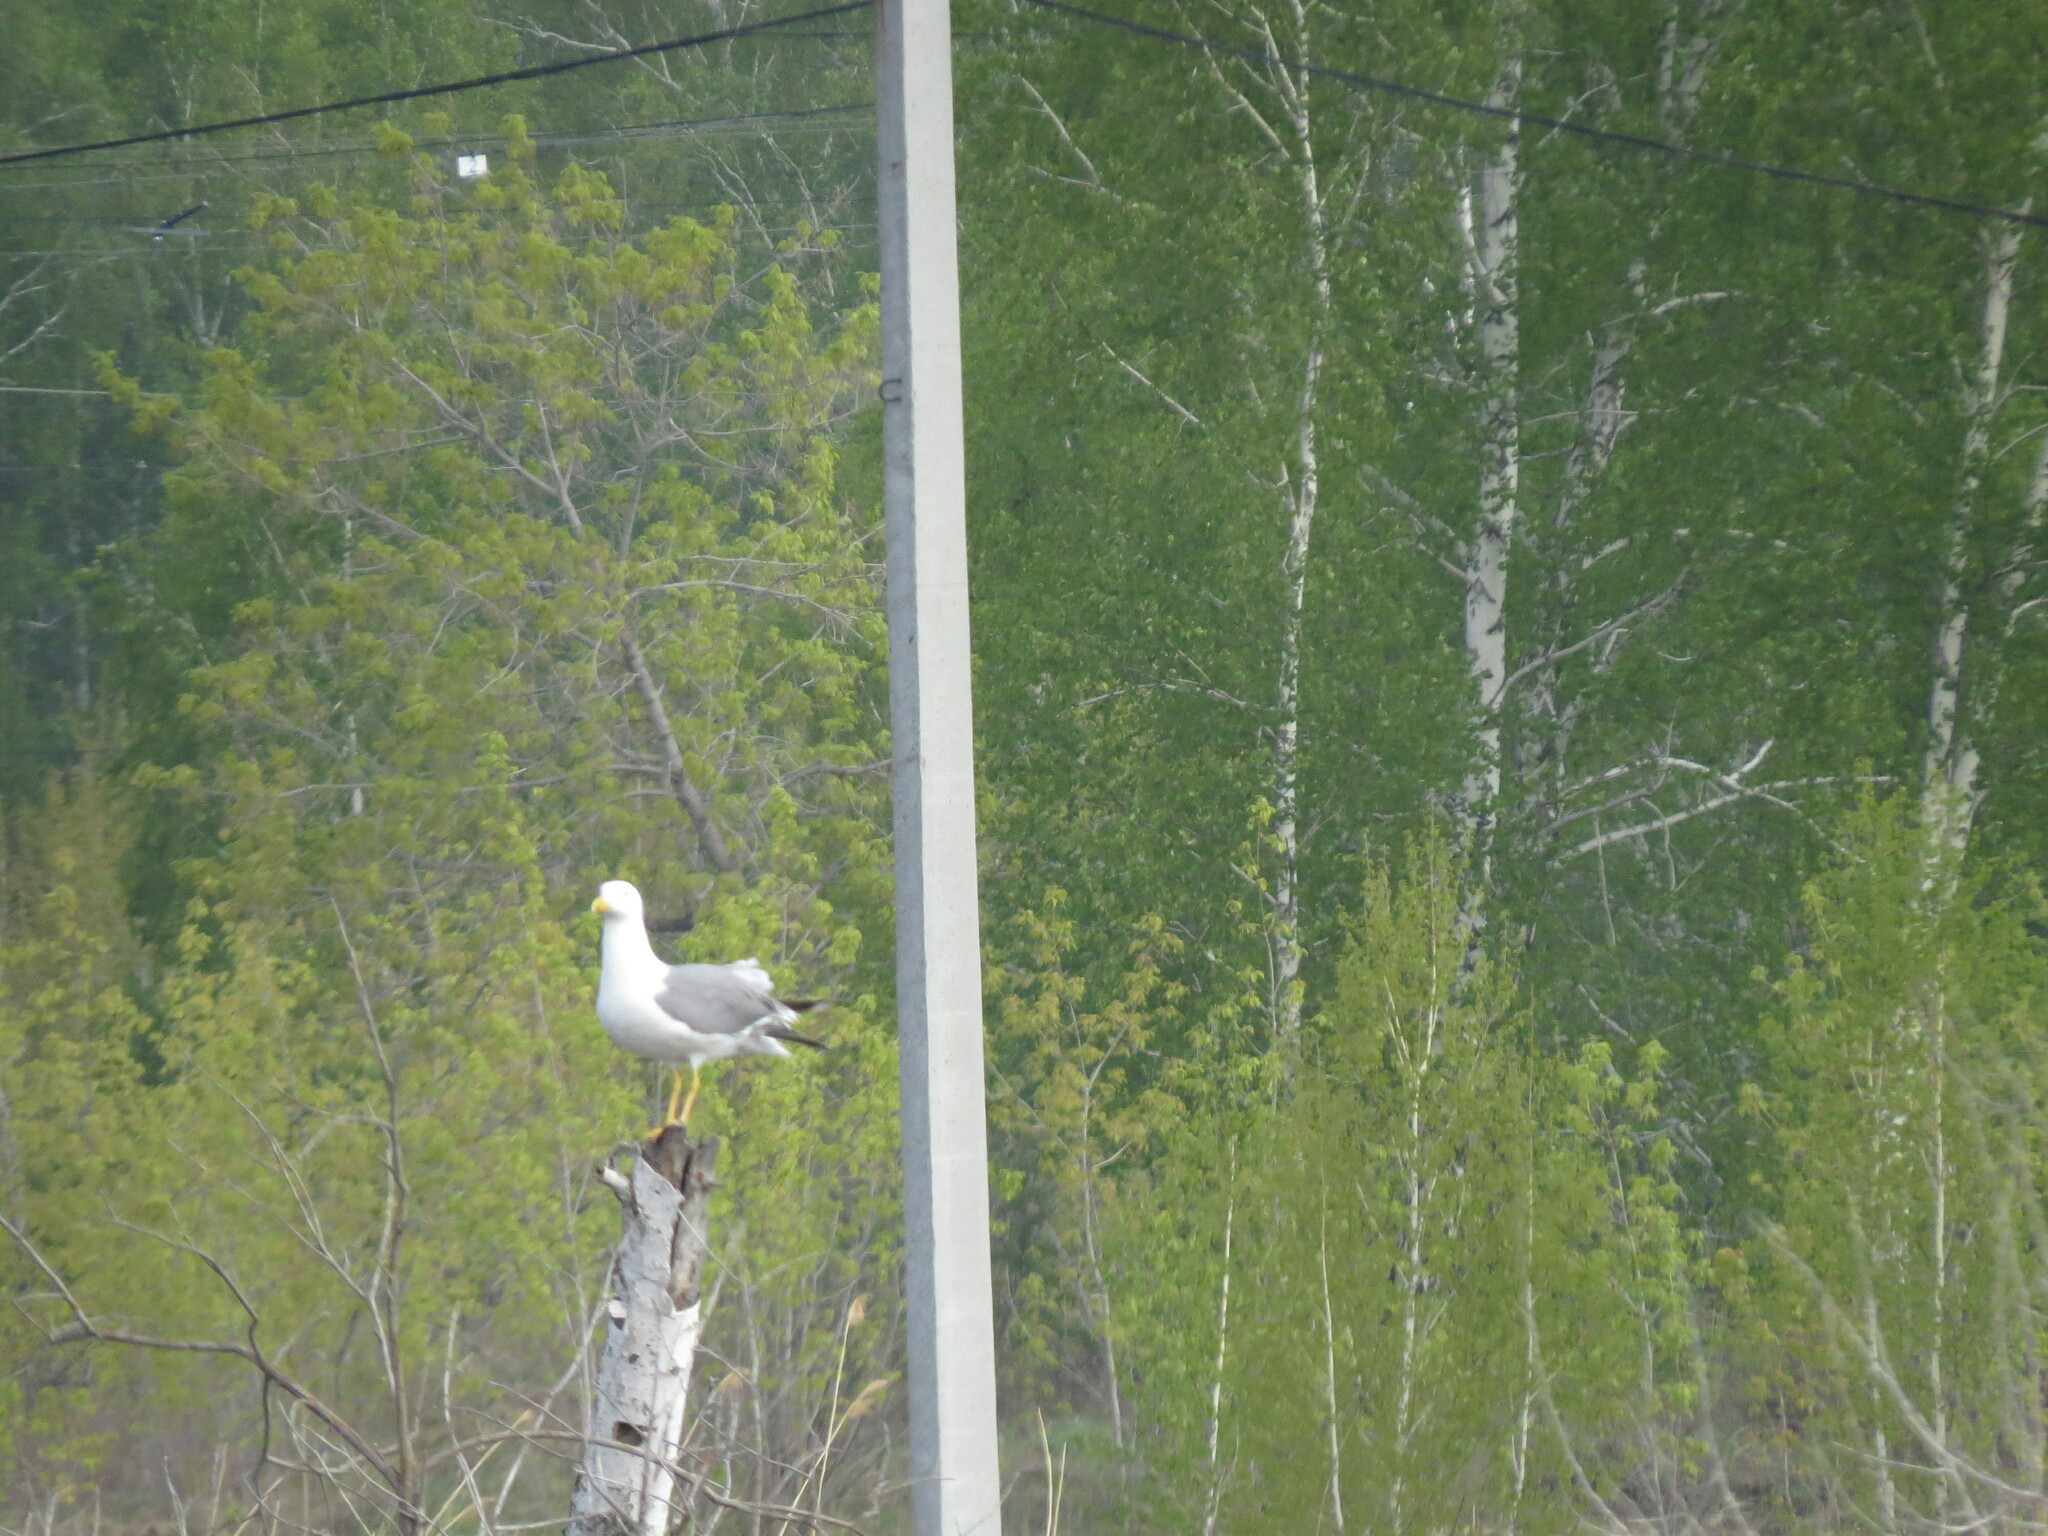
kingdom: Animalia
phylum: Chordata
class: Aves
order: Charadriiformes
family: Laridae
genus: Larus
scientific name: Larus fuscus
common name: Lesser black-backed gull
